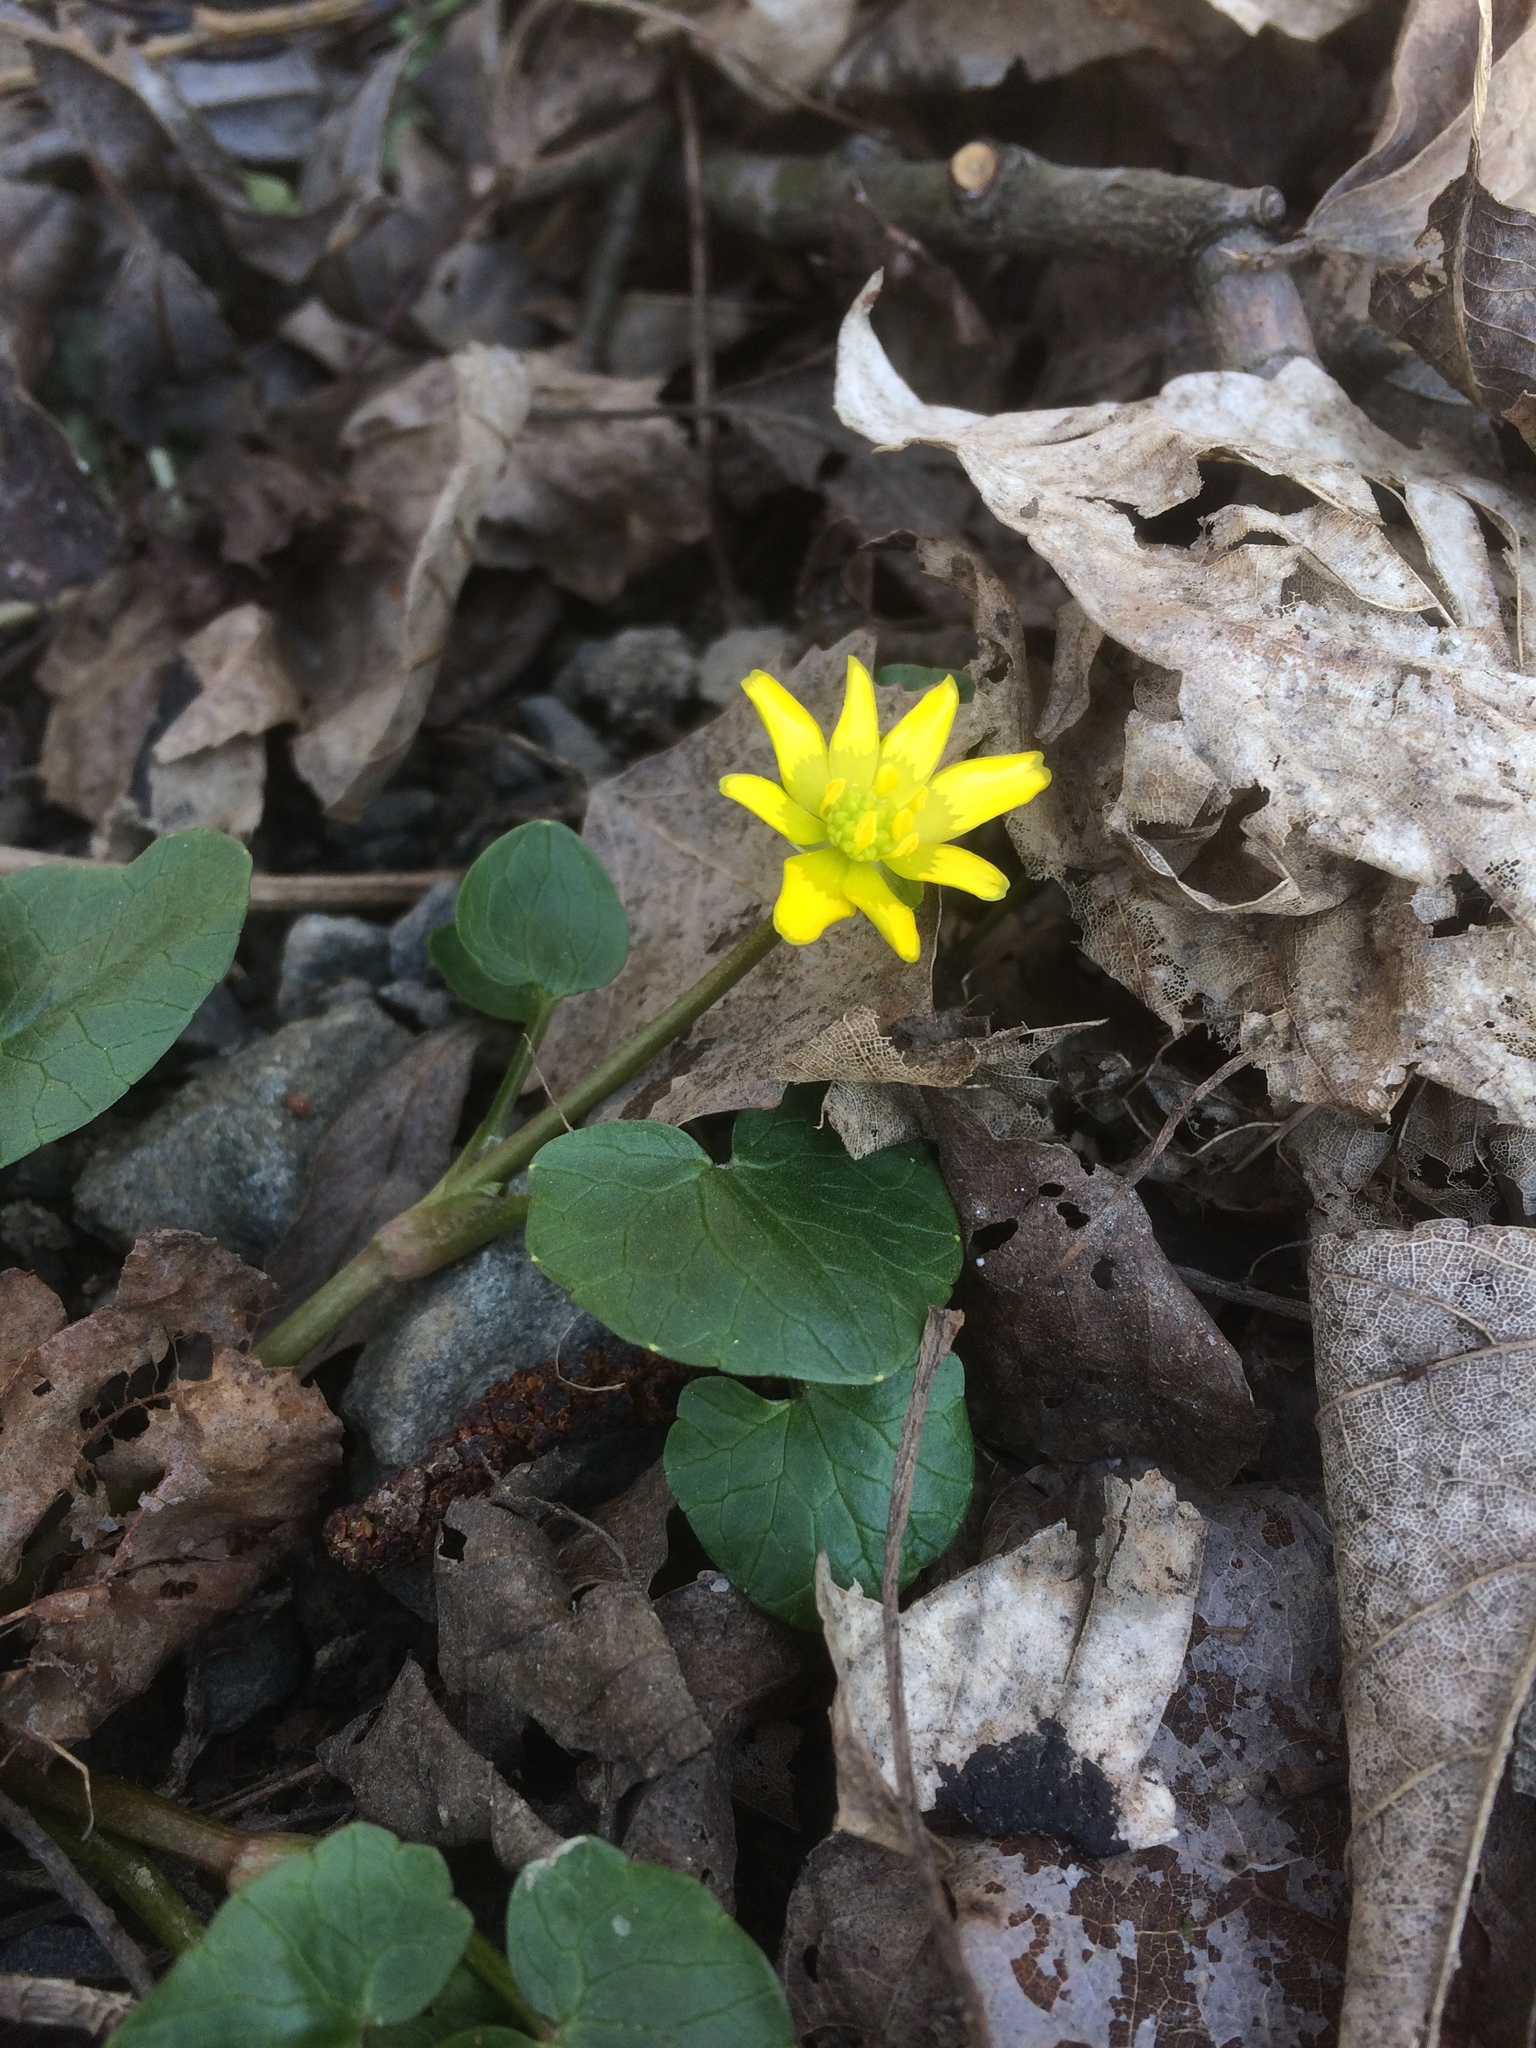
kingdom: Plantae
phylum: Tracheophyta
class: Magnoliopsida
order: Ranunculales
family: Ranunculaceae
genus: Ficaria
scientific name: Ficaria verna
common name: Lesser celandine
